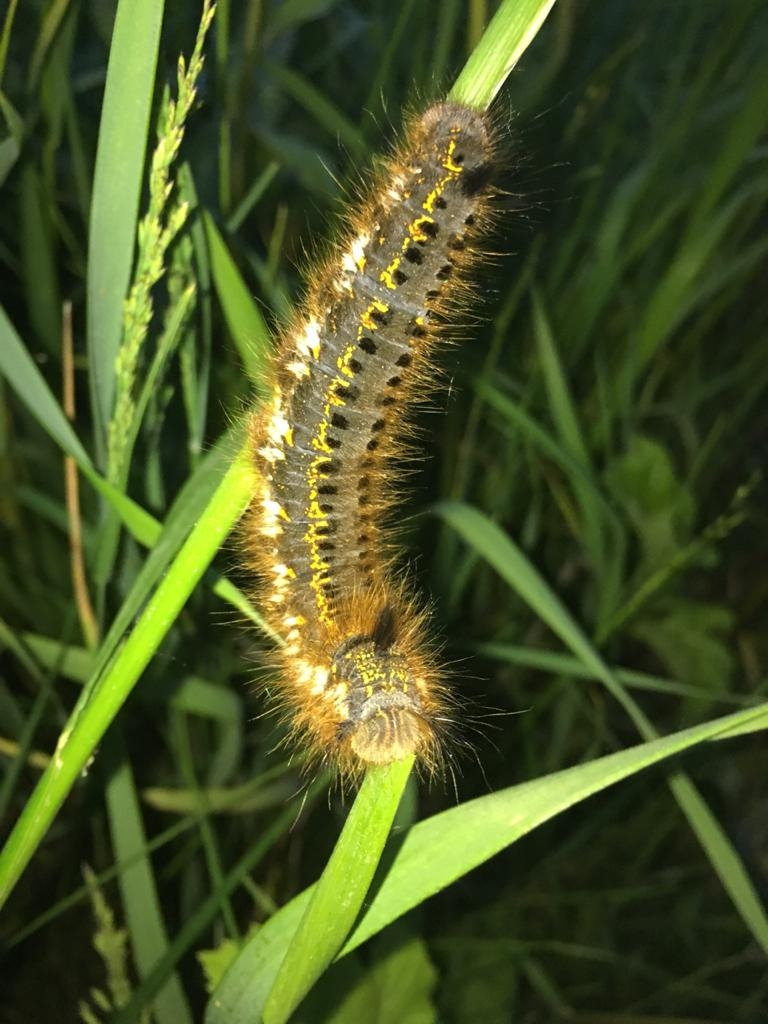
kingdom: Animalia
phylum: Arthropoda
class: Insecta
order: Lepidoptera
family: Lasiocampidae
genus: Euthrix
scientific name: Euthrix potatoria
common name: Drinker
